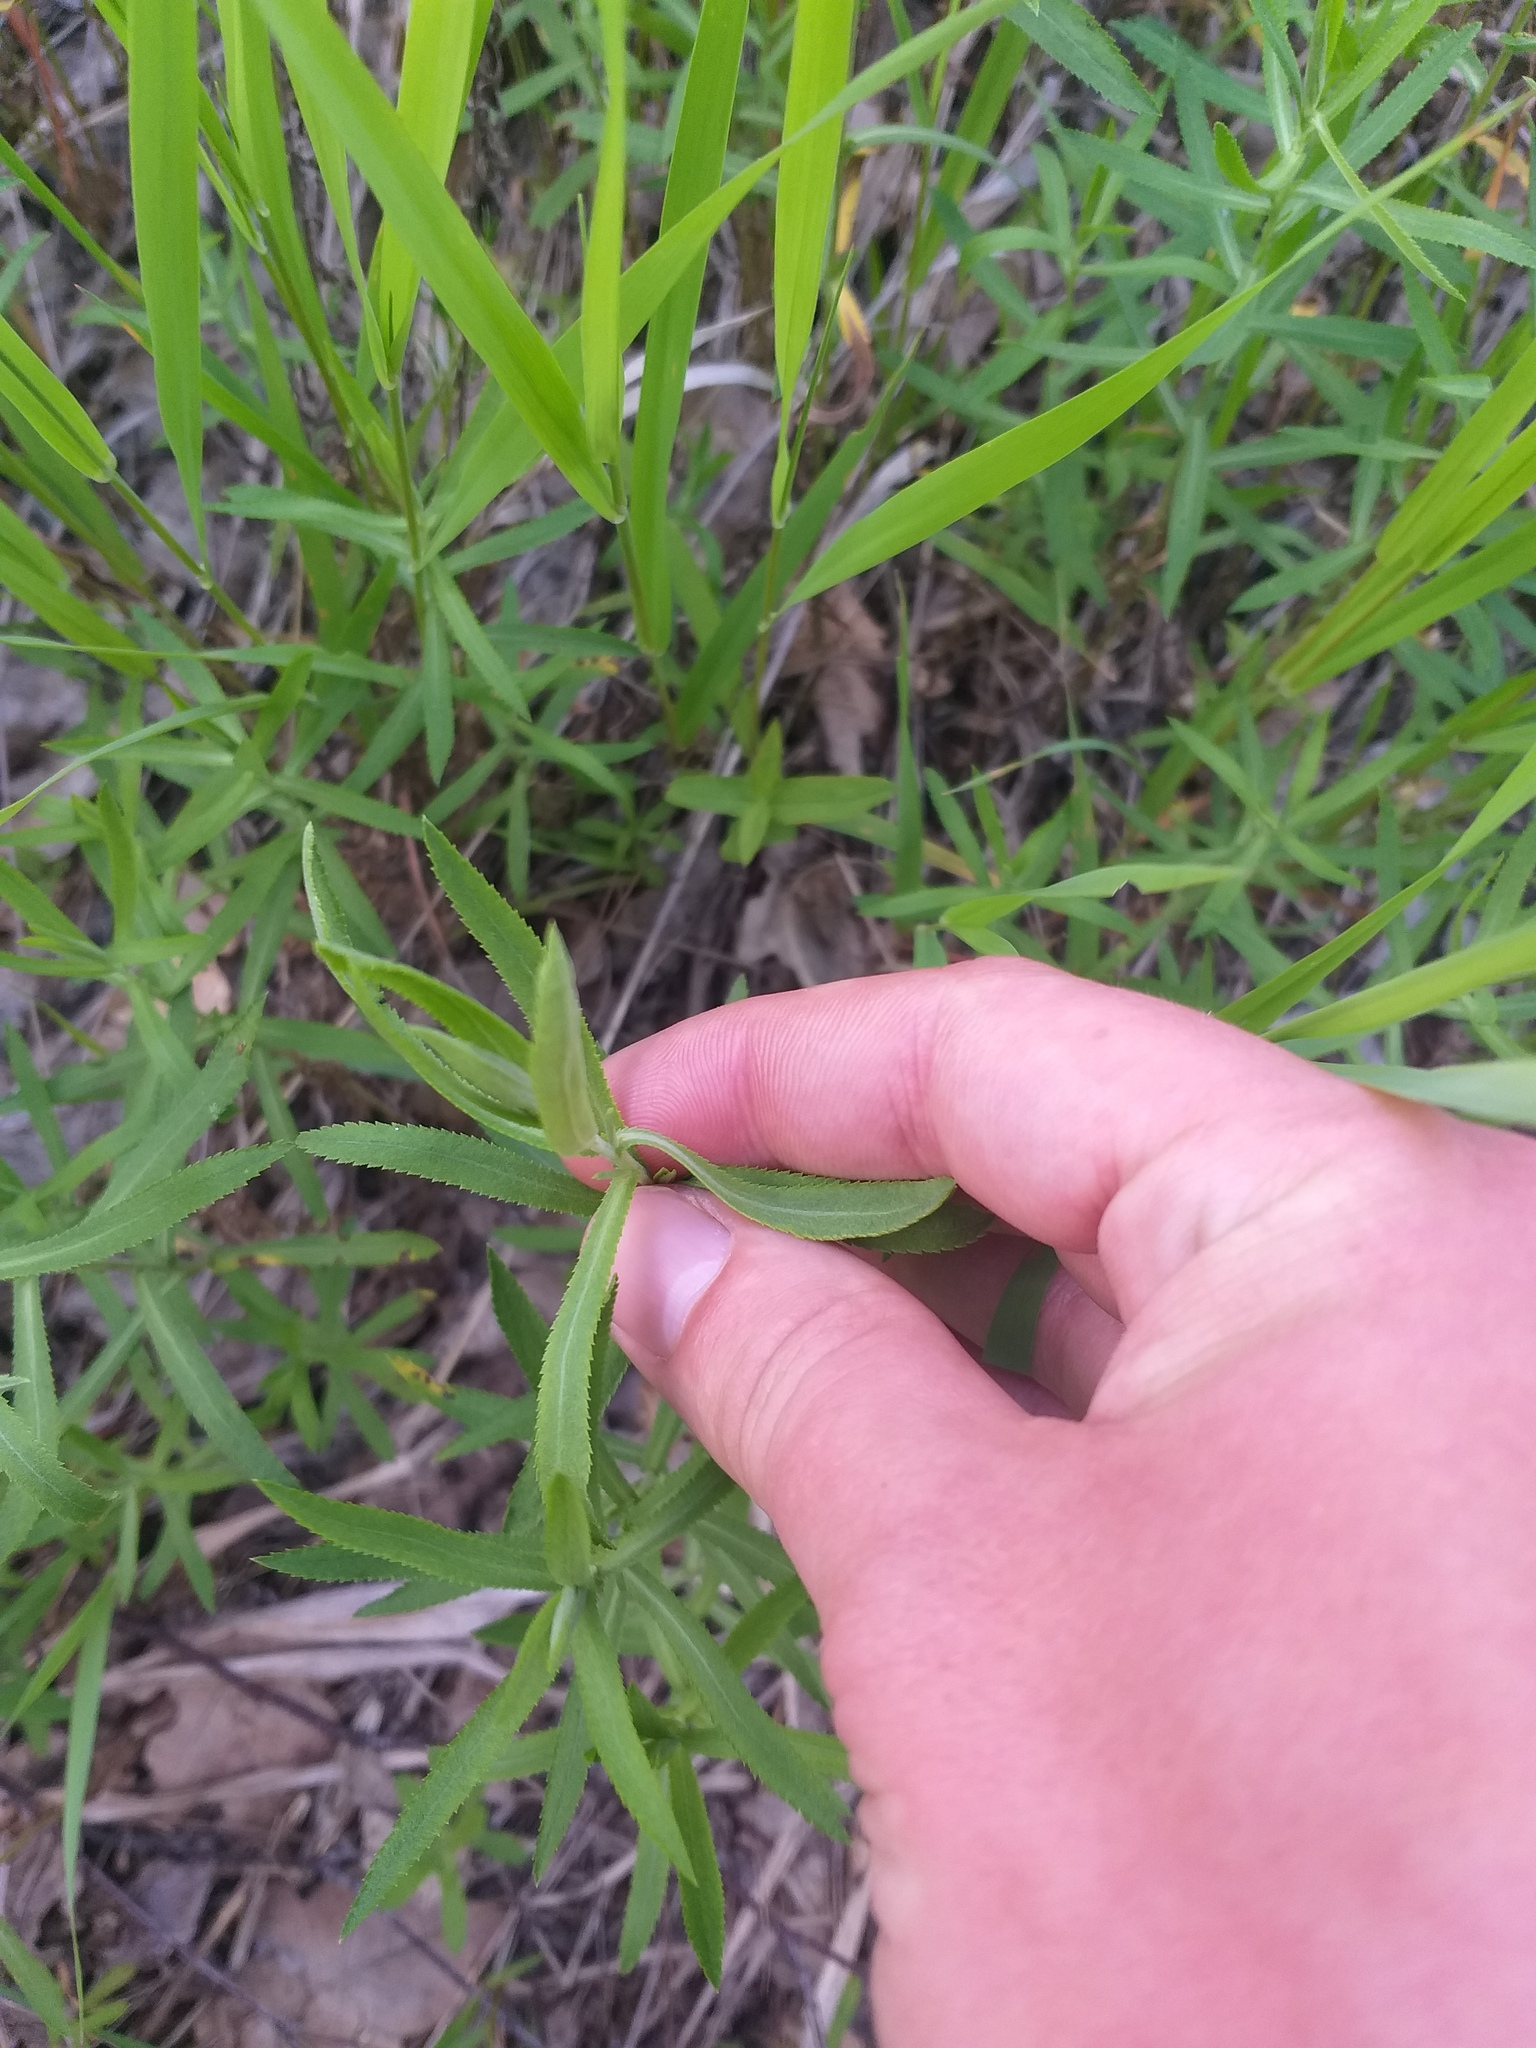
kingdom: Plantae
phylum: Tracheophyta
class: Magnoliopsida
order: Asterales
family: Asteraceae
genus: Achillea
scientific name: Achillea salicifolia
